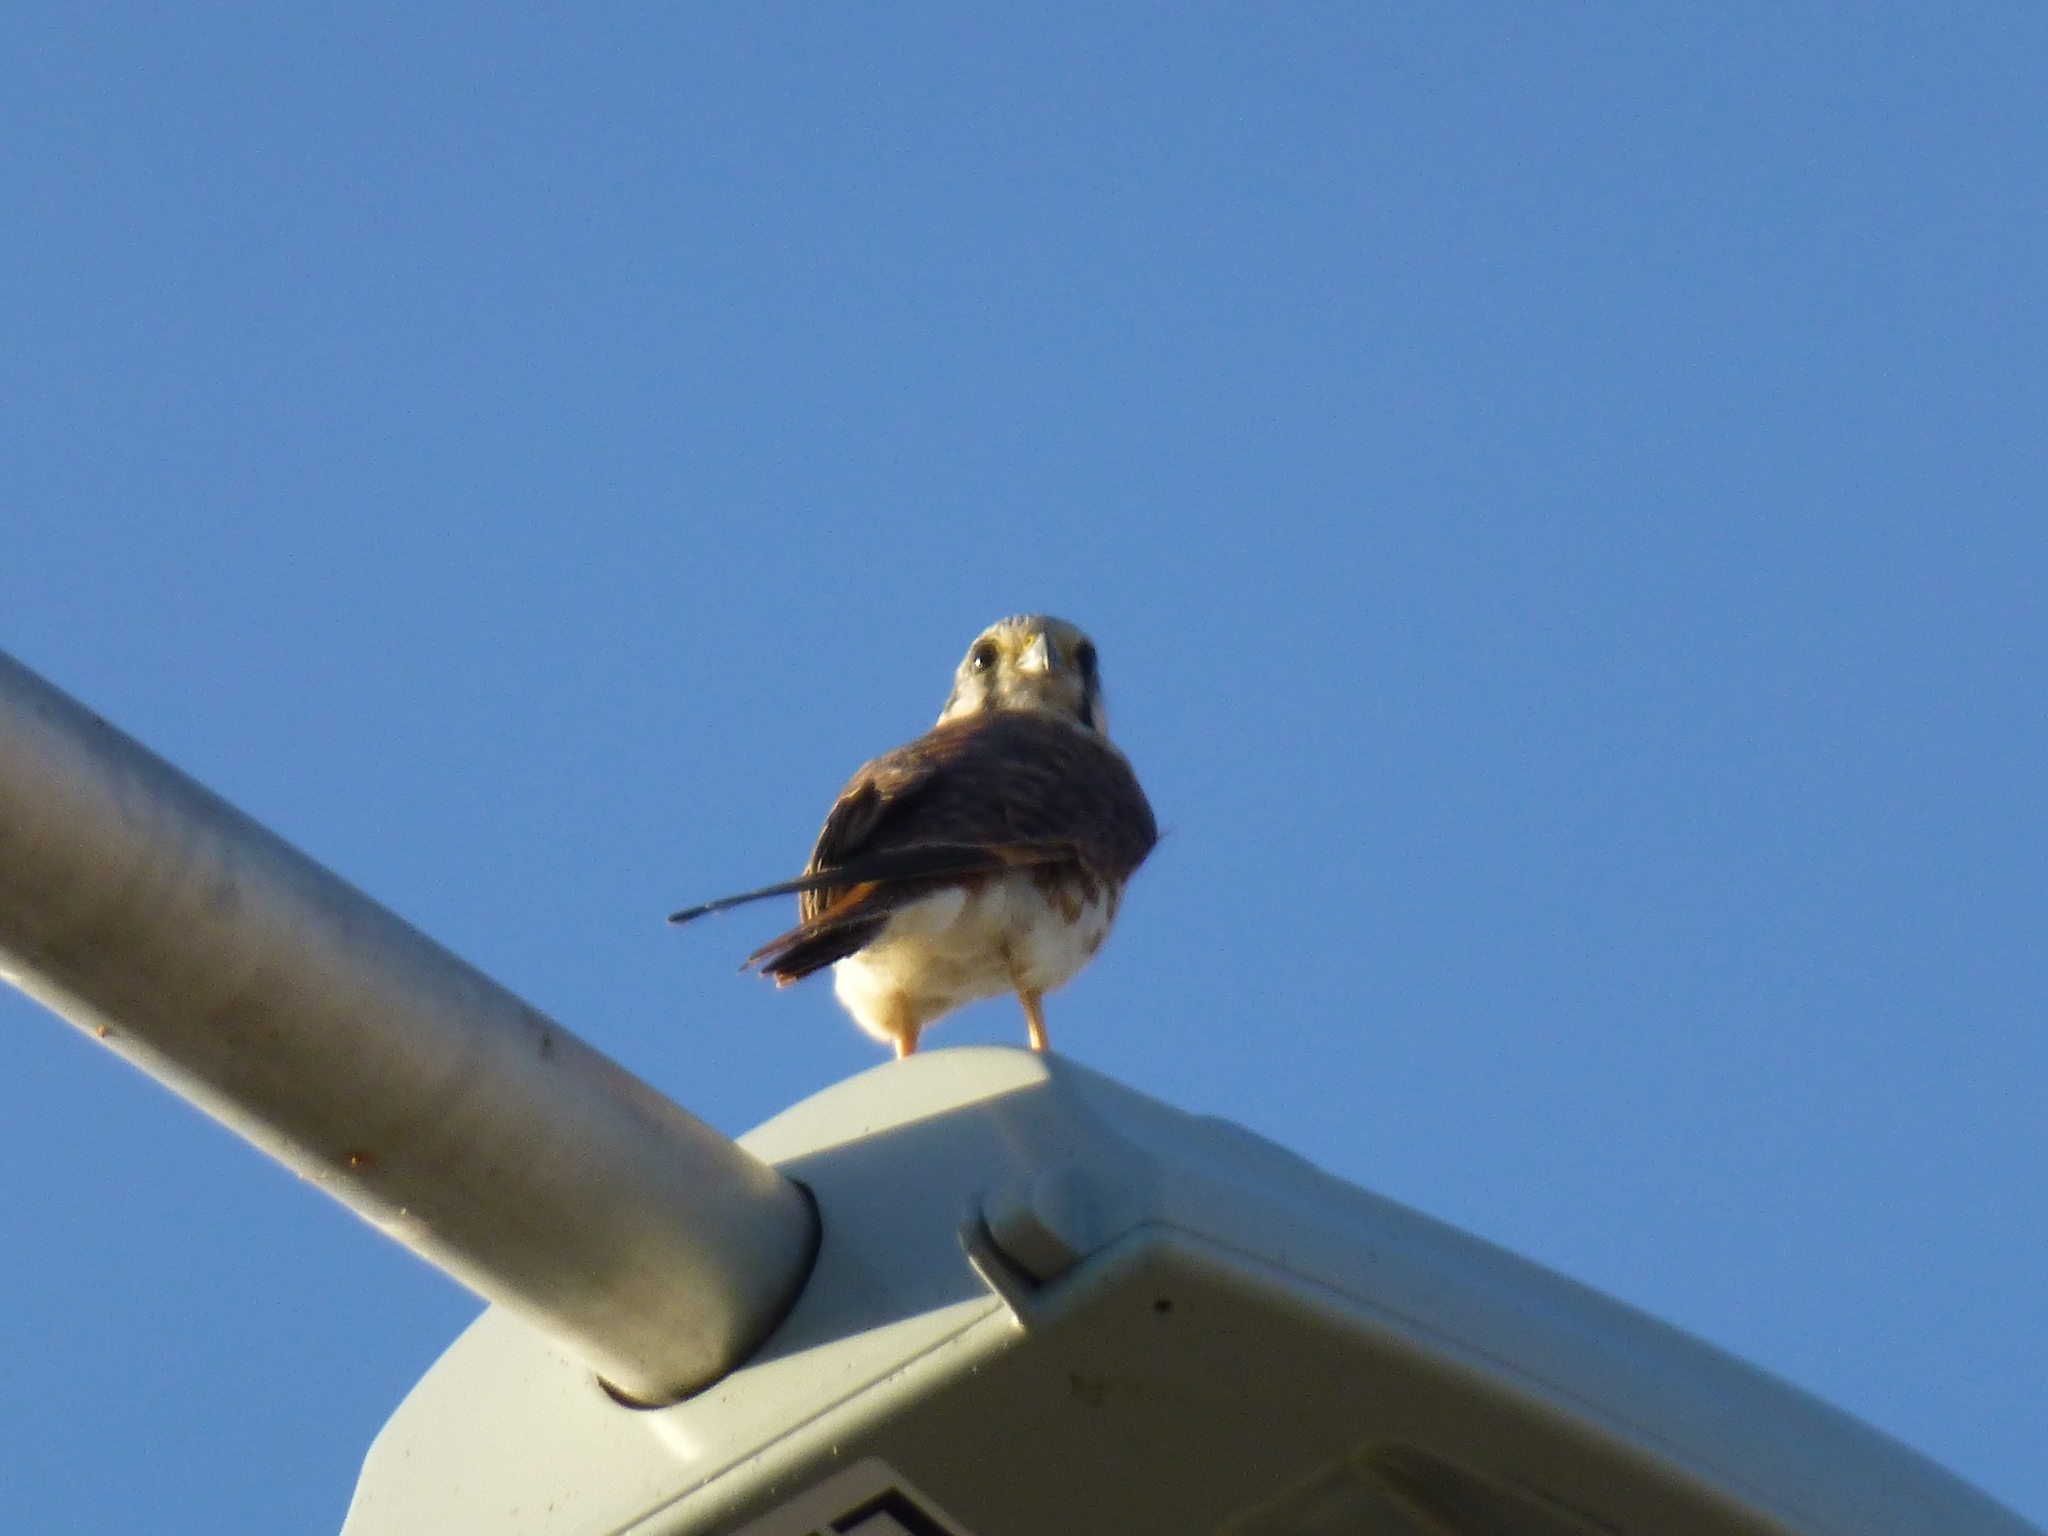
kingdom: Animalia
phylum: Chordata
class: Aves
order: Falconiformes
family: Falconidae
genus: Falco
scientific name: Falco sparverius
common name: American kestrel
